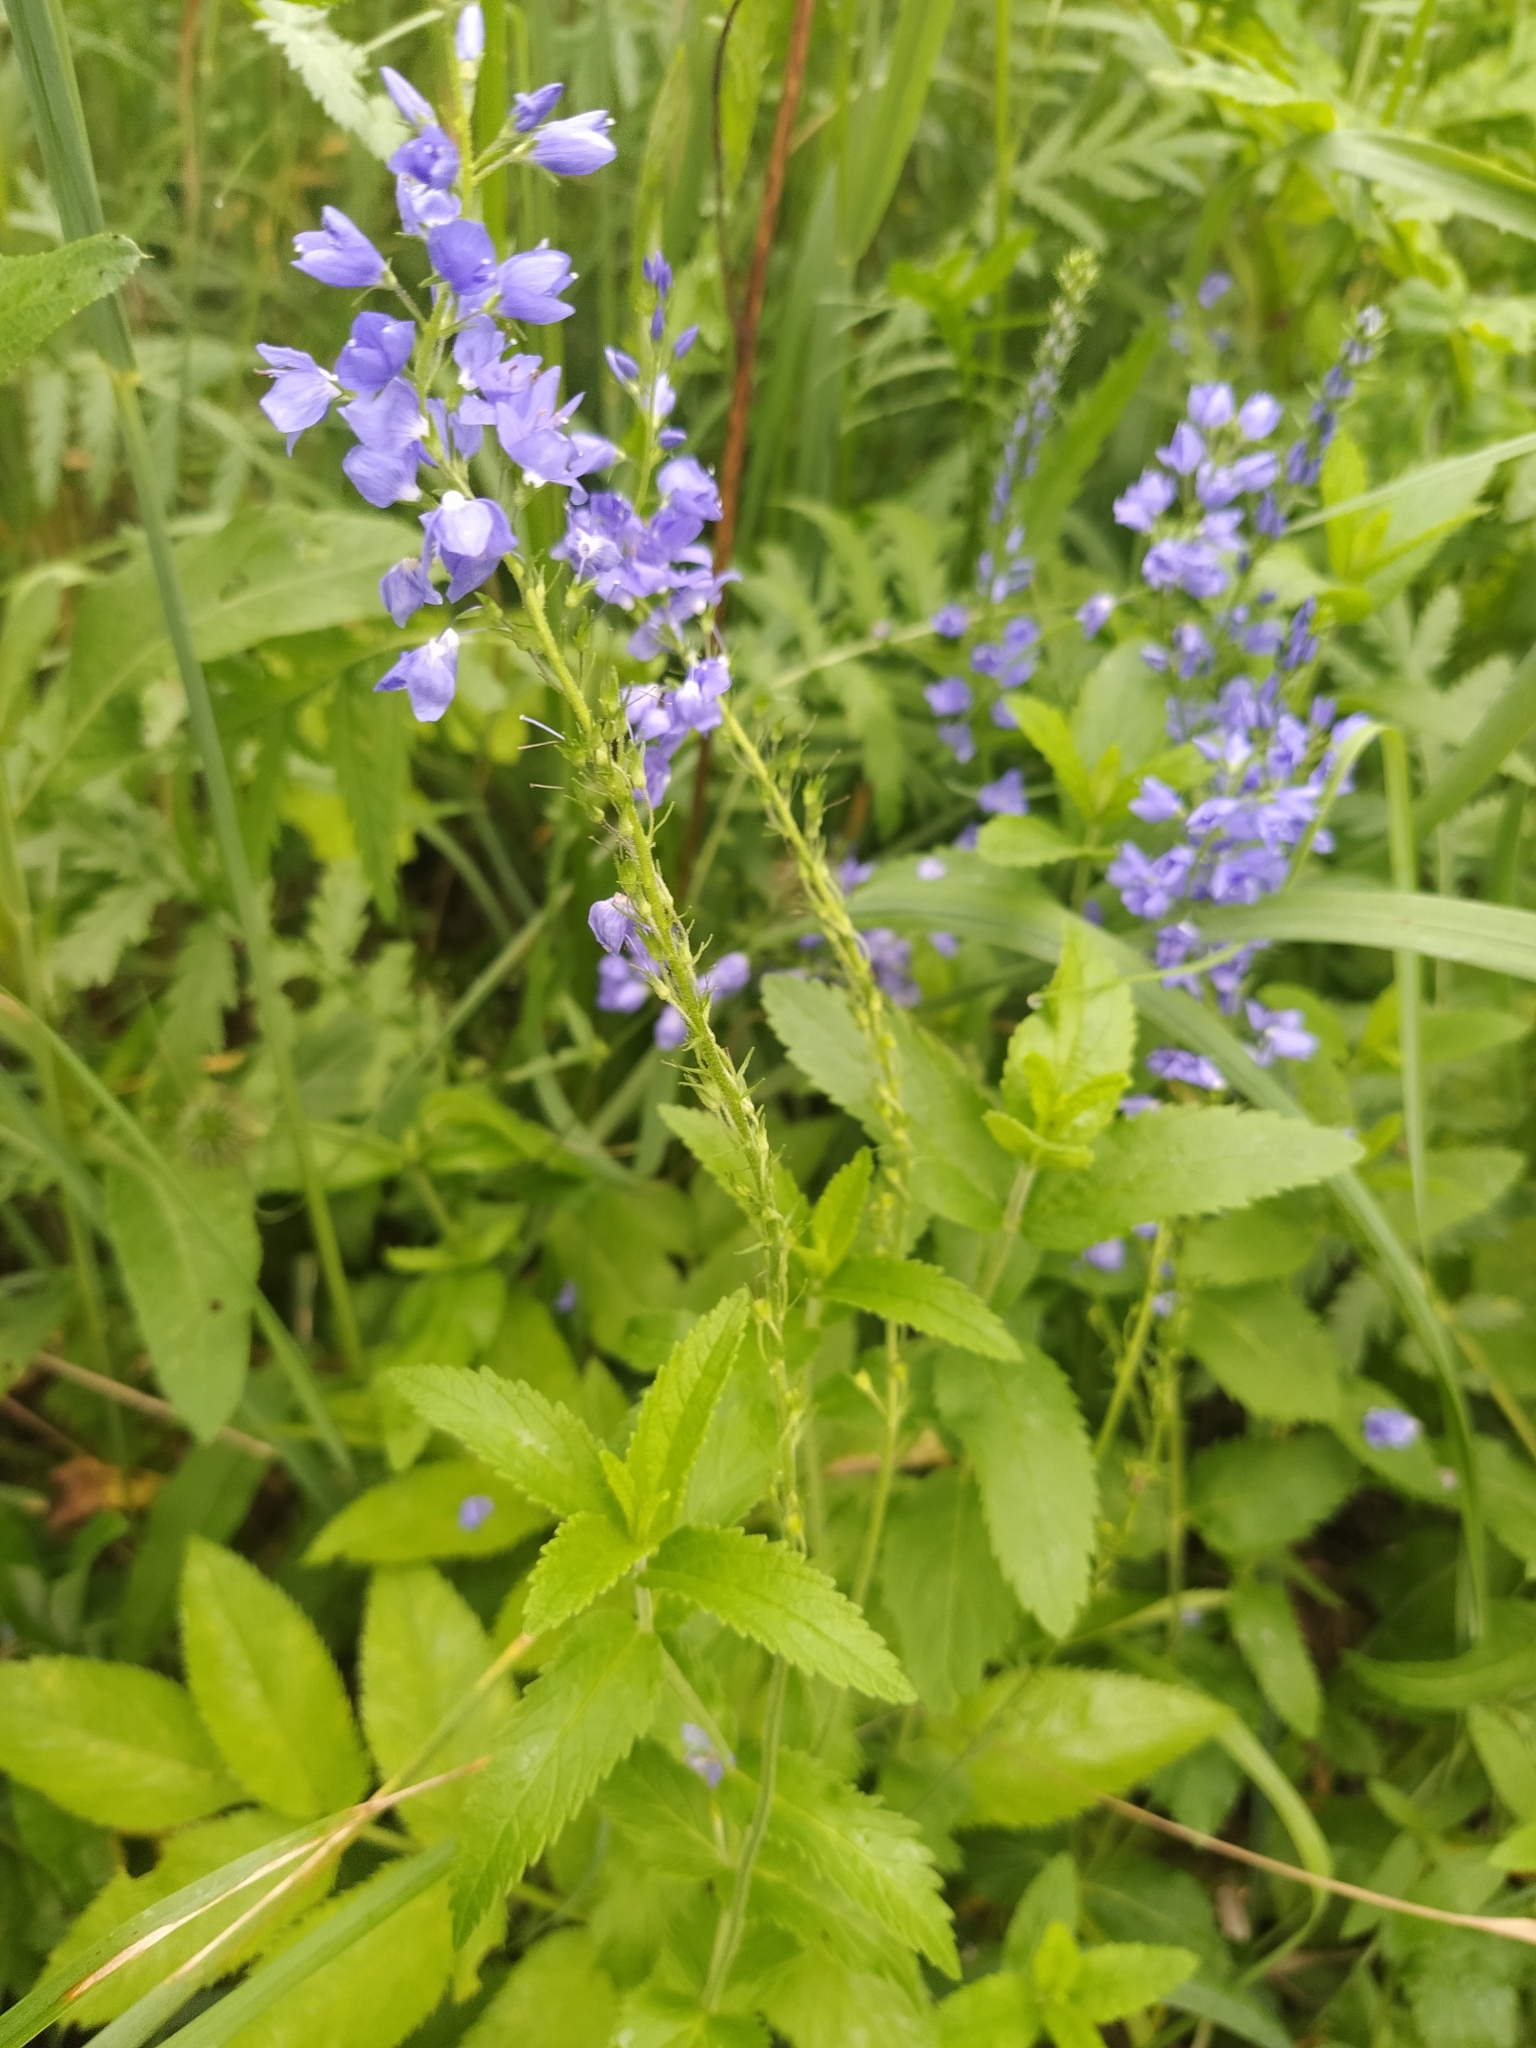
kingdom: Plantae
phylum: Tracheophyta
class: Magnoliopsida
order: Lamiales
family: Plantaginaceae
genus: Veronica
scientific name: Veronica teucrium
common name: Large speedwell
